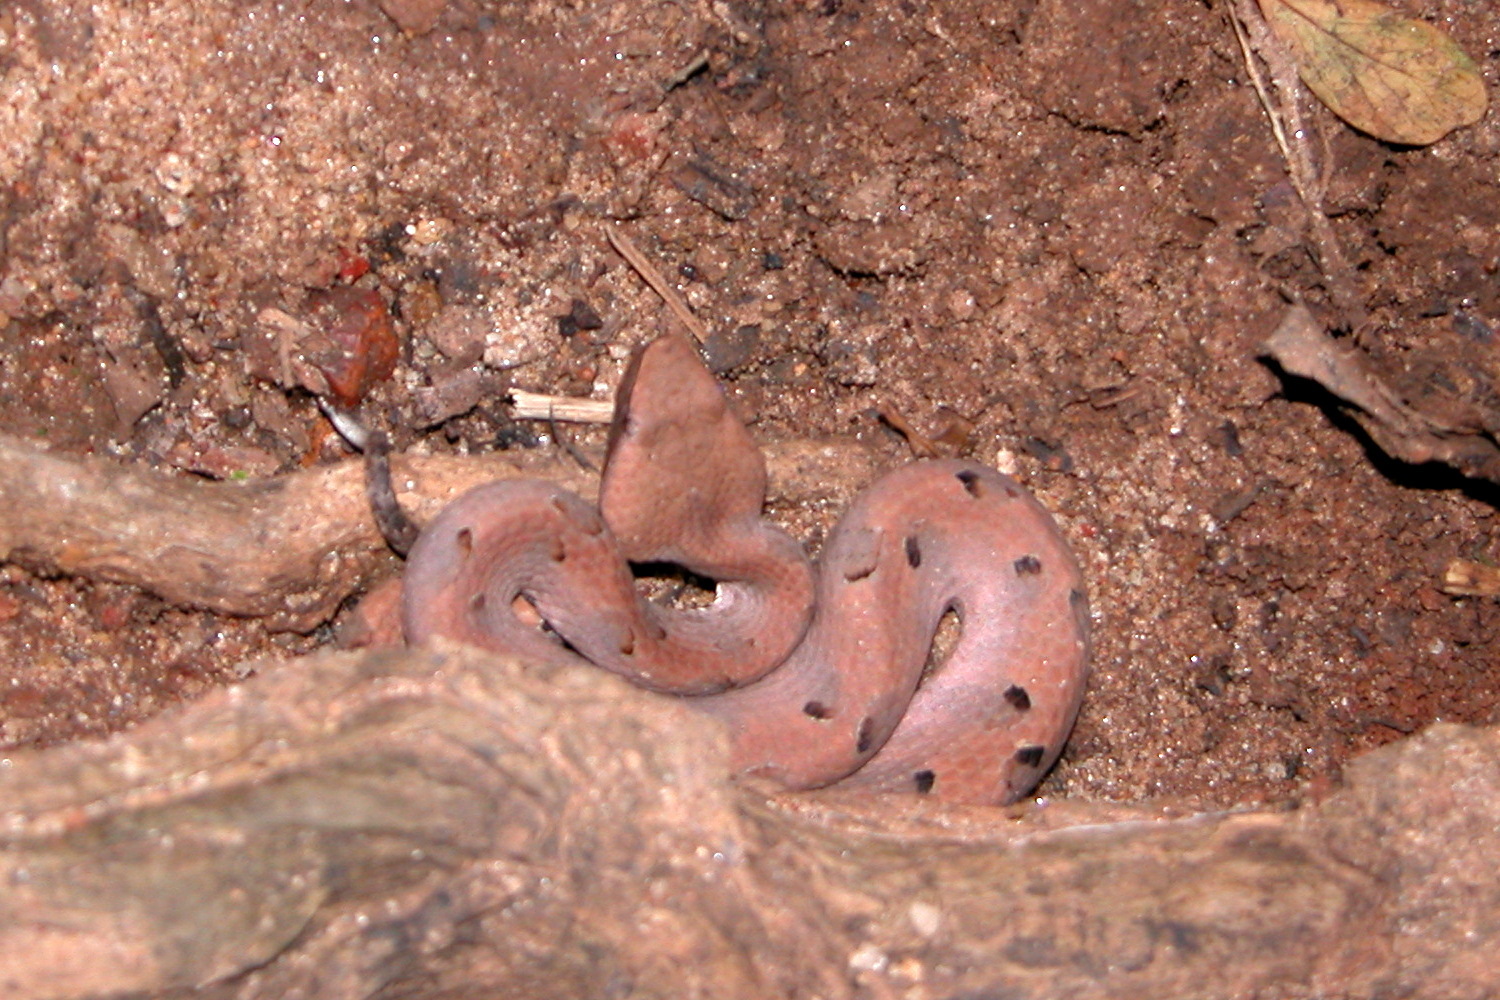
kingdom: Animalia
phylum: Chordata
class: Squamata
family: Viperidae
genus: Hypnale
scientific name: Hypnale hypnale
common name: Hump-nosed moccasin
